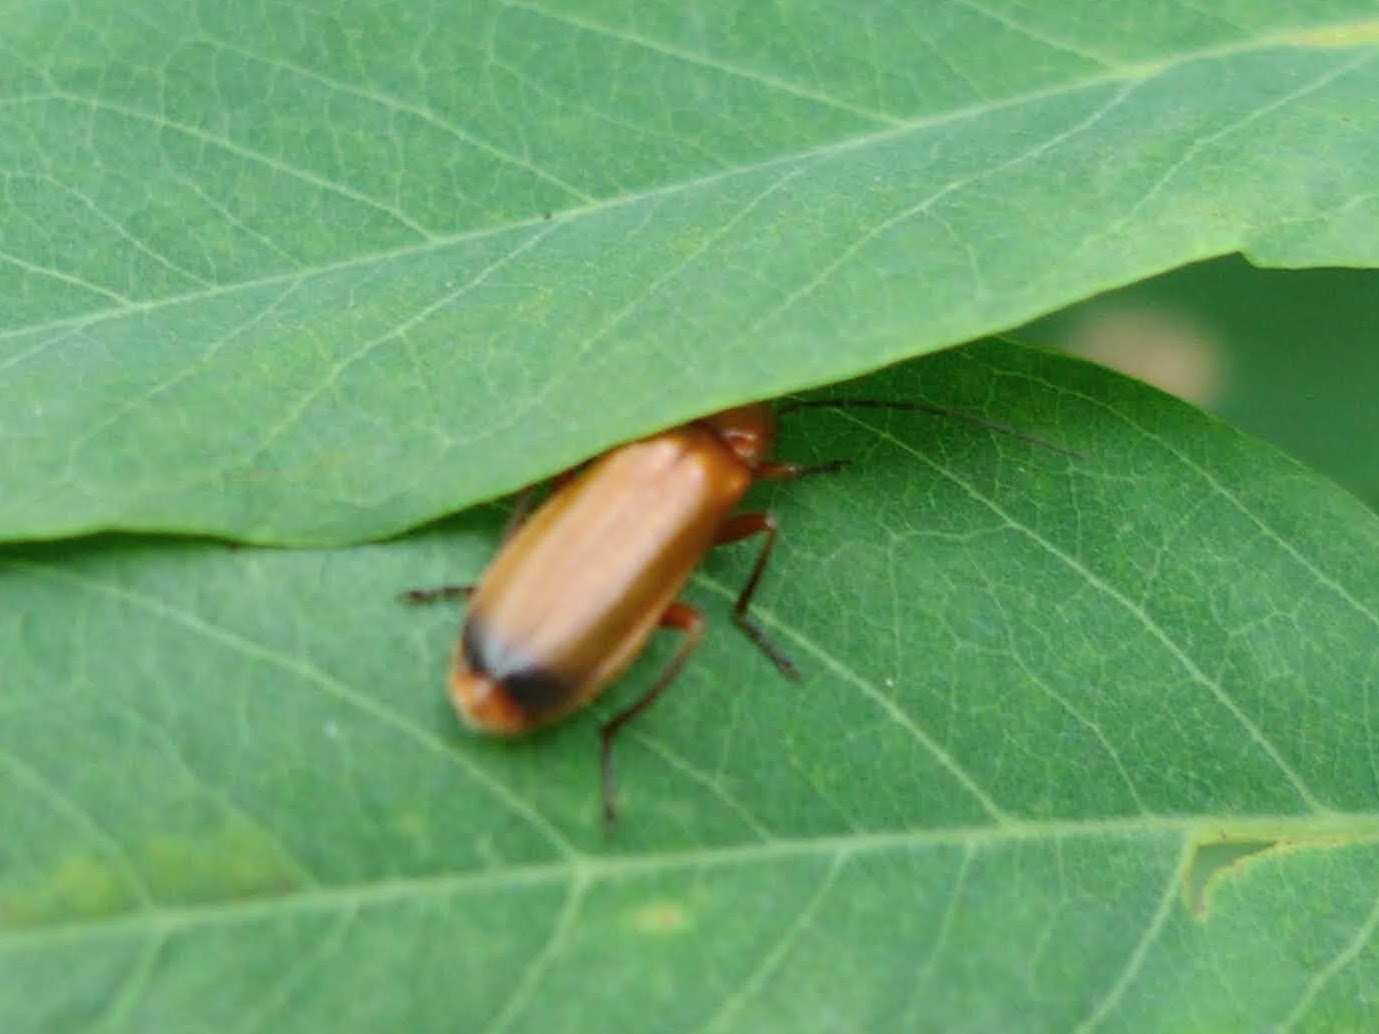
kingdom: Animalia
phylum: Arthropoda
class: Insecta
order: Coleoptera
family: Cantharidae
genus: Rhagonycha
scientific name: Rhagonycha fulva
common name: Common red soldier beetle
